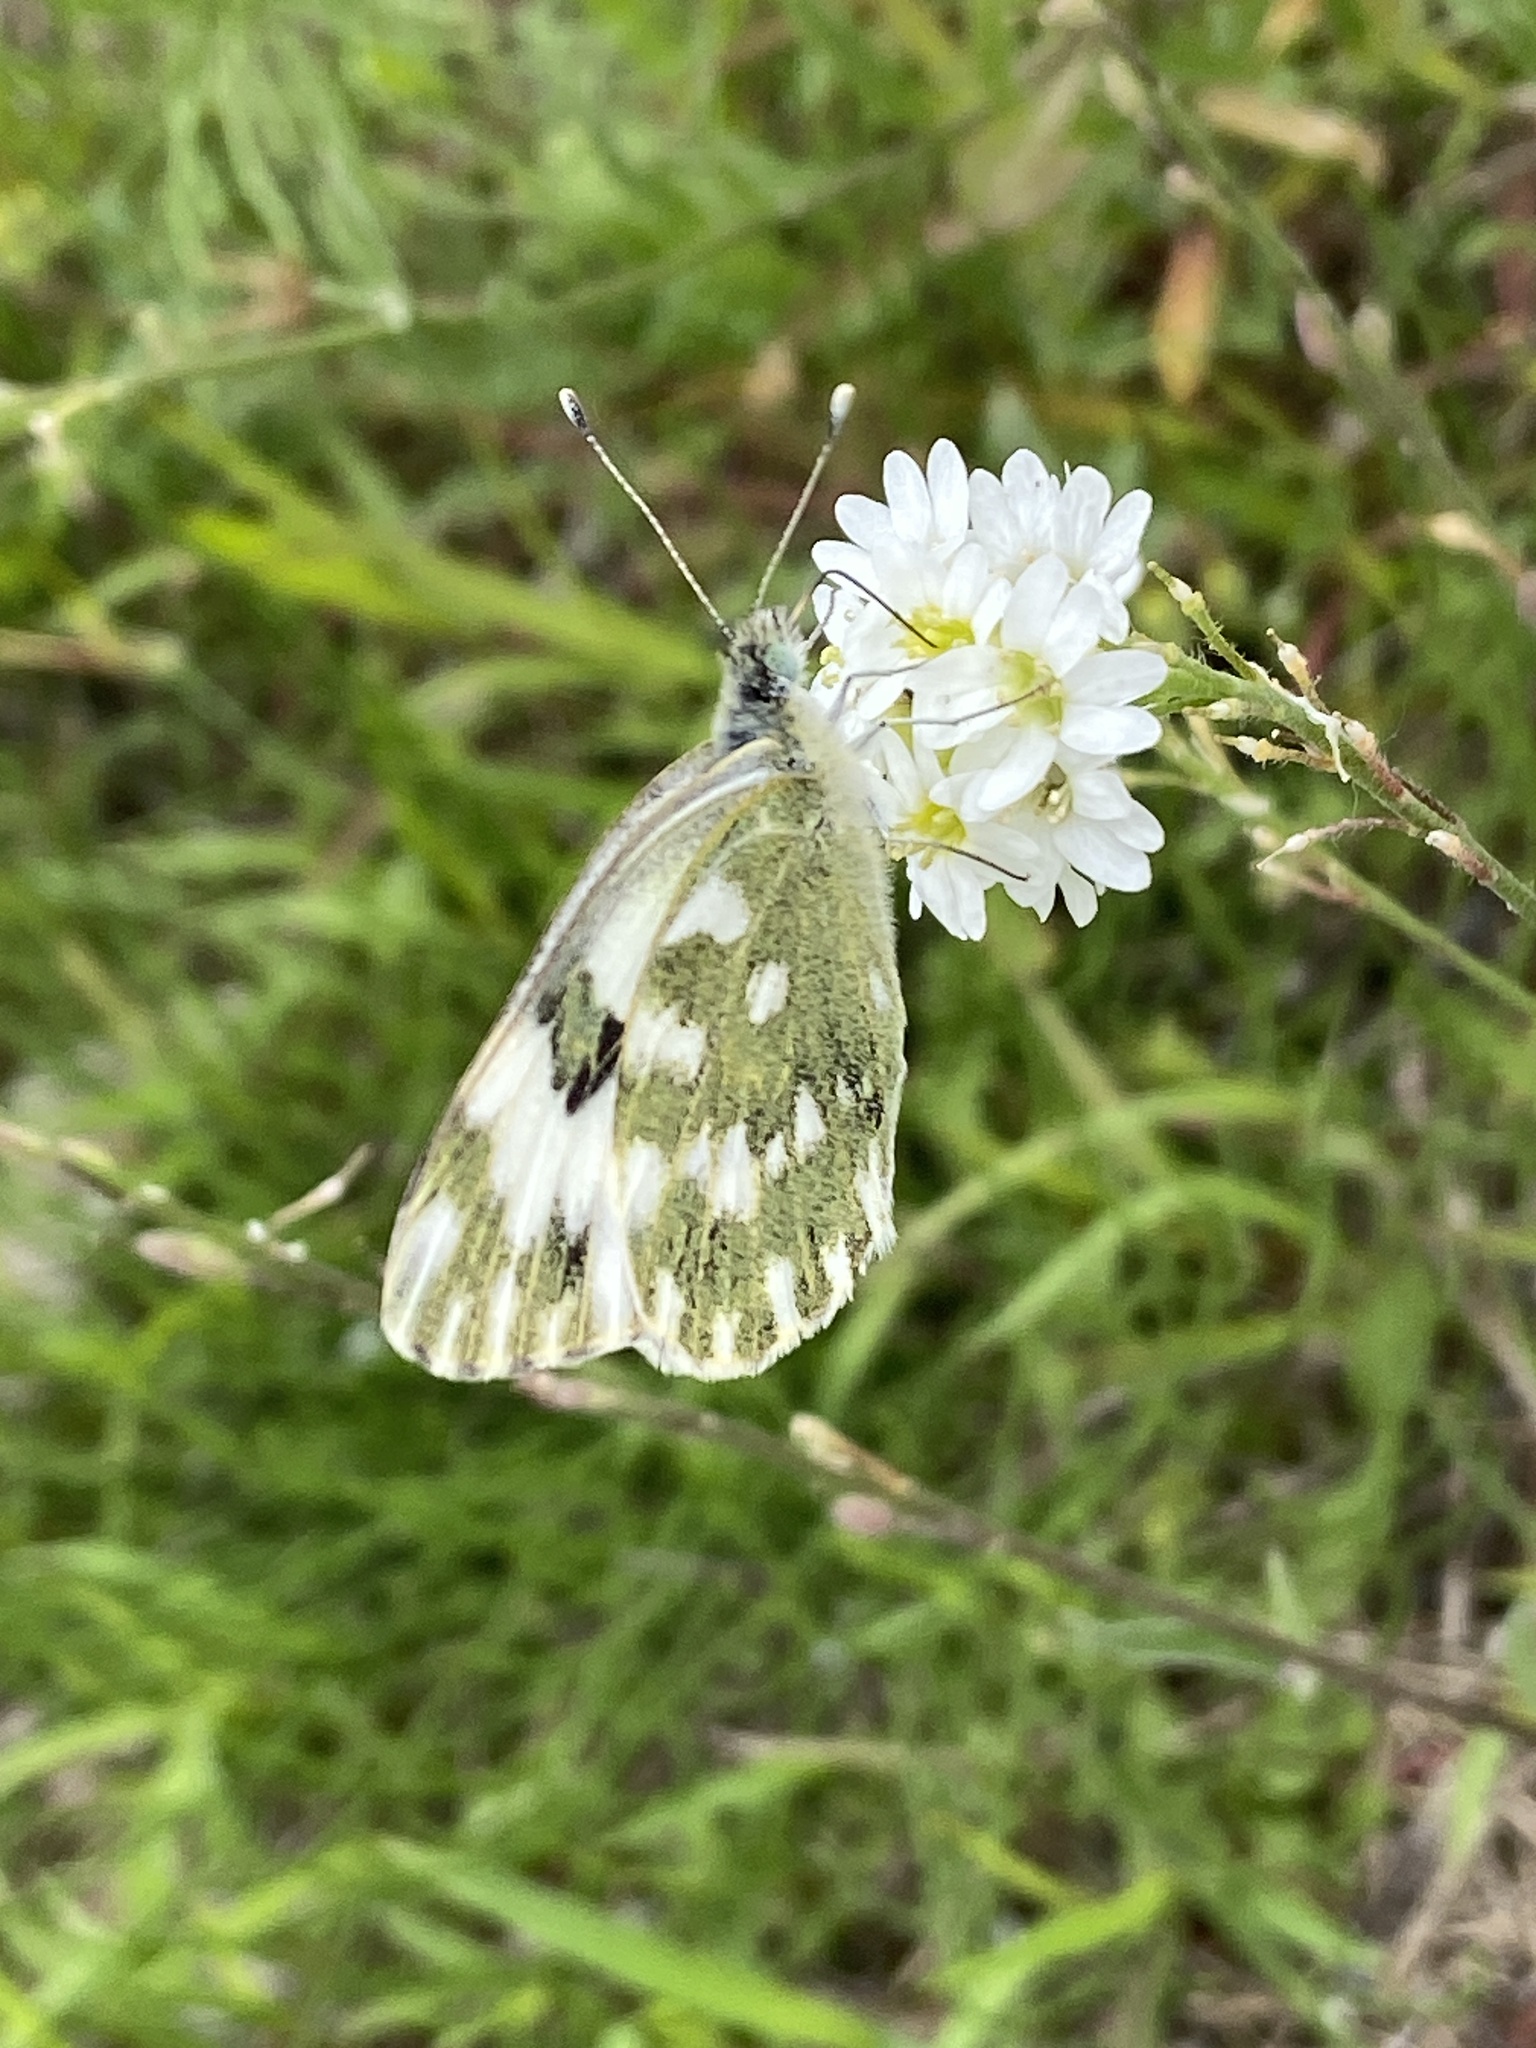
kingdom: Animalia
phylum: Arthropoda
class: Insecta
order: Lepidoptera
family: Pieridae
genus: Pontia
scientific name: Pontia edusa
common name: Eastern bath white
